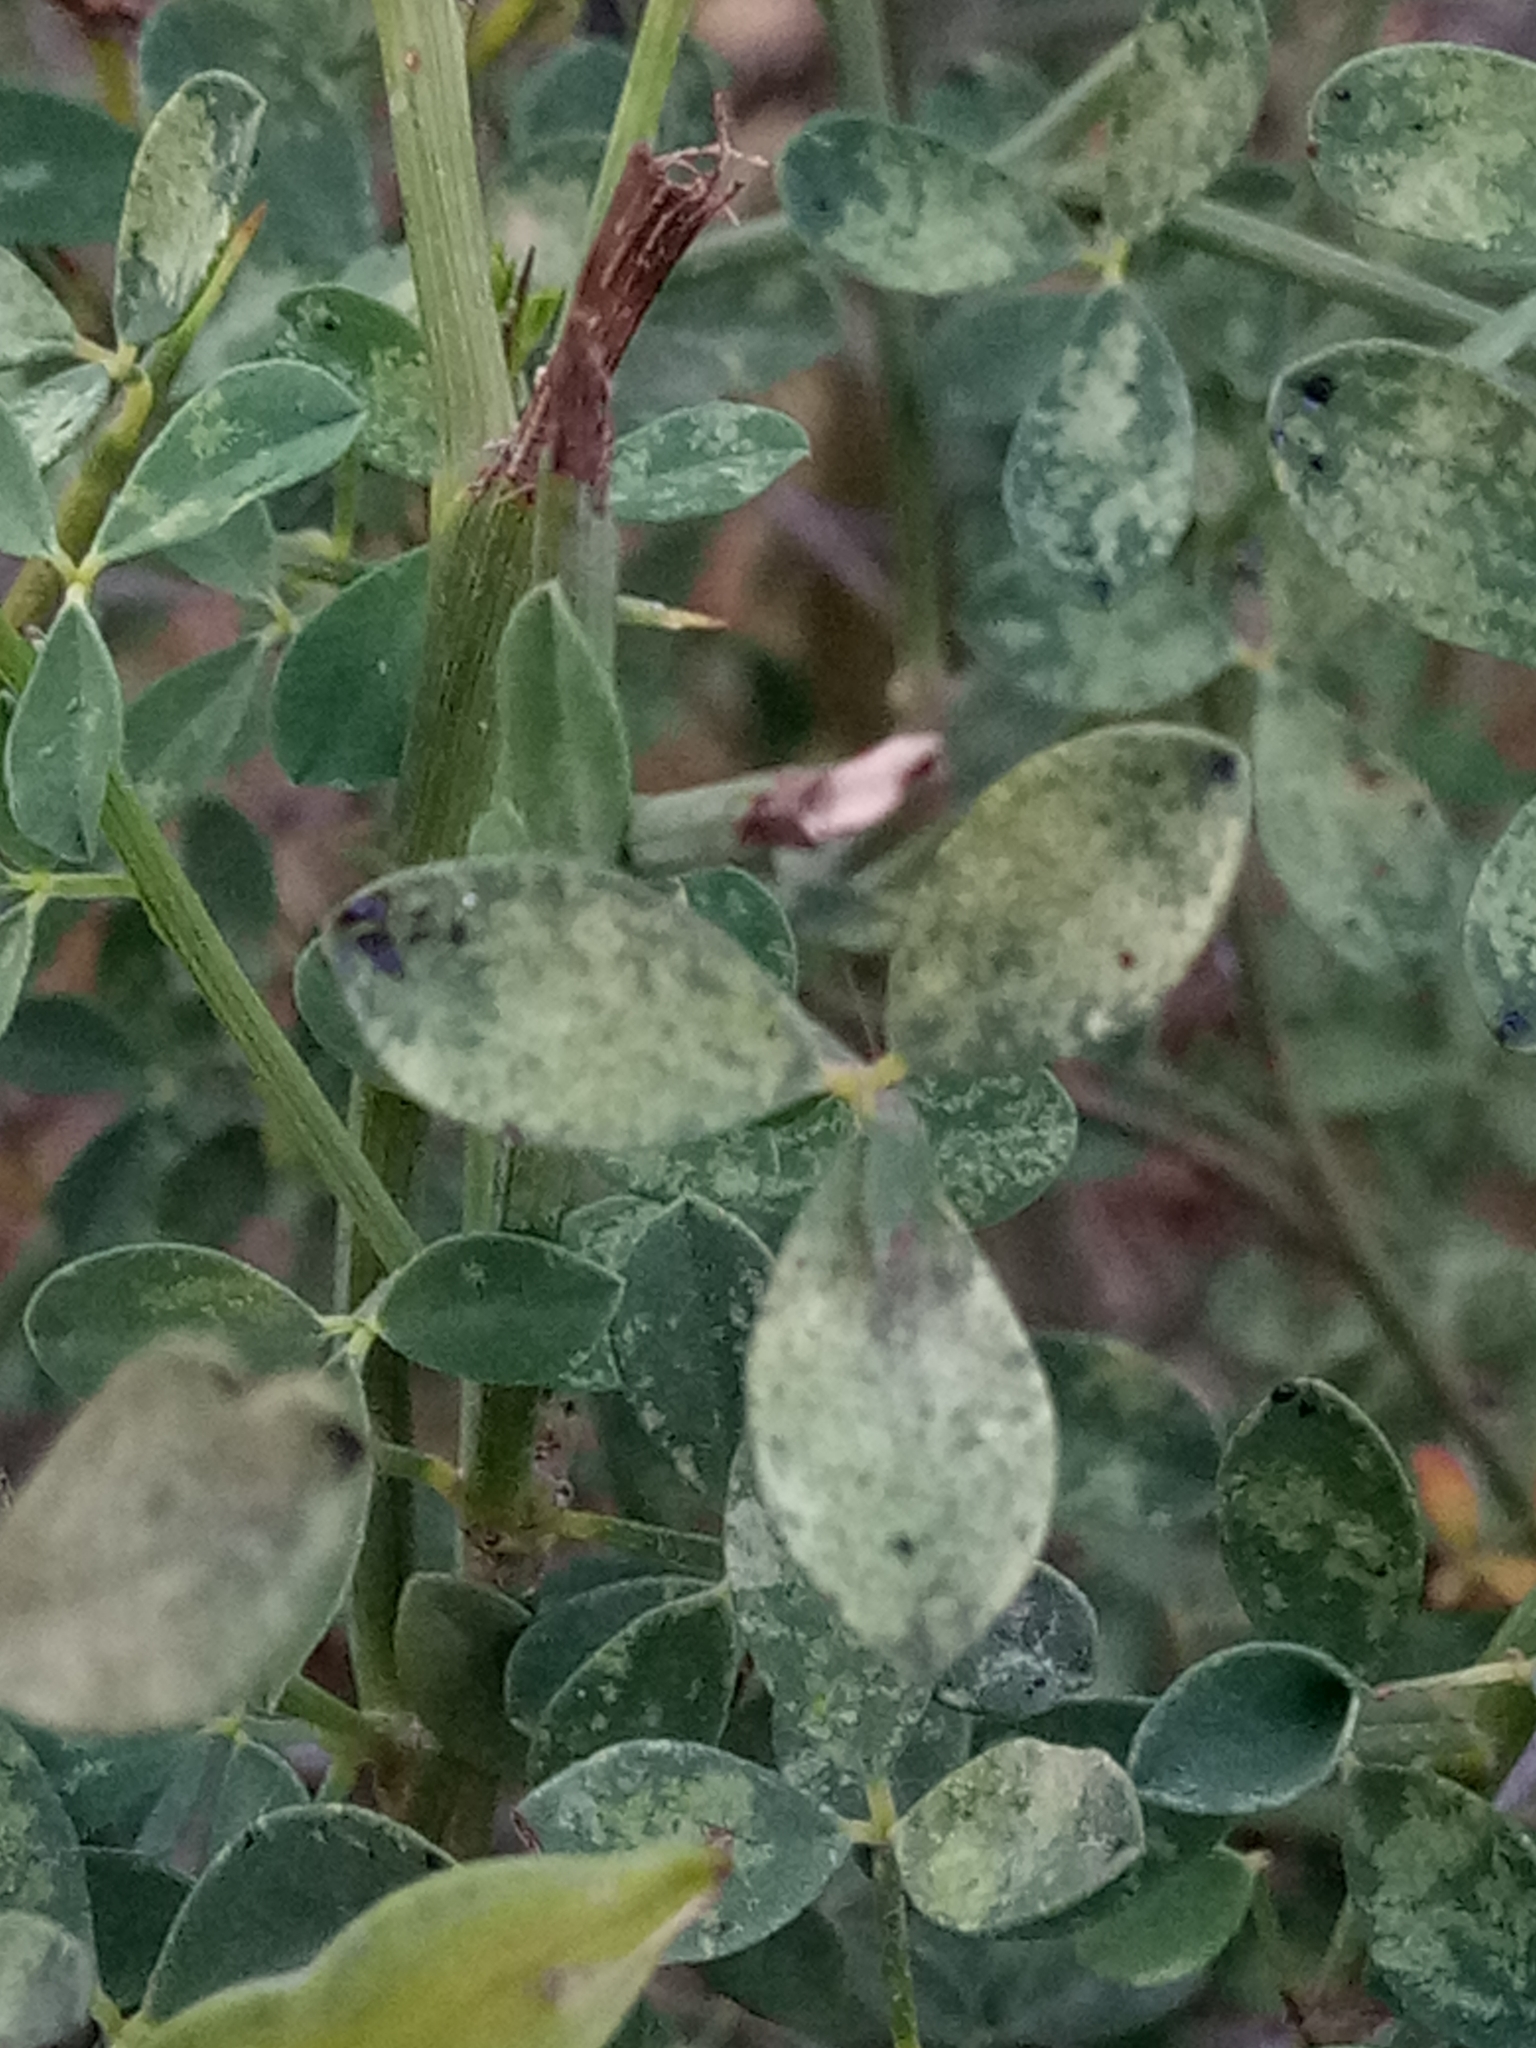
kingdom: Plantae
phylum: Tracheophyta
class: Magnoliopsida
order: Fabales
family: Fabaceae
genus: Calicotome
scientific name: Calicotome spinosa
